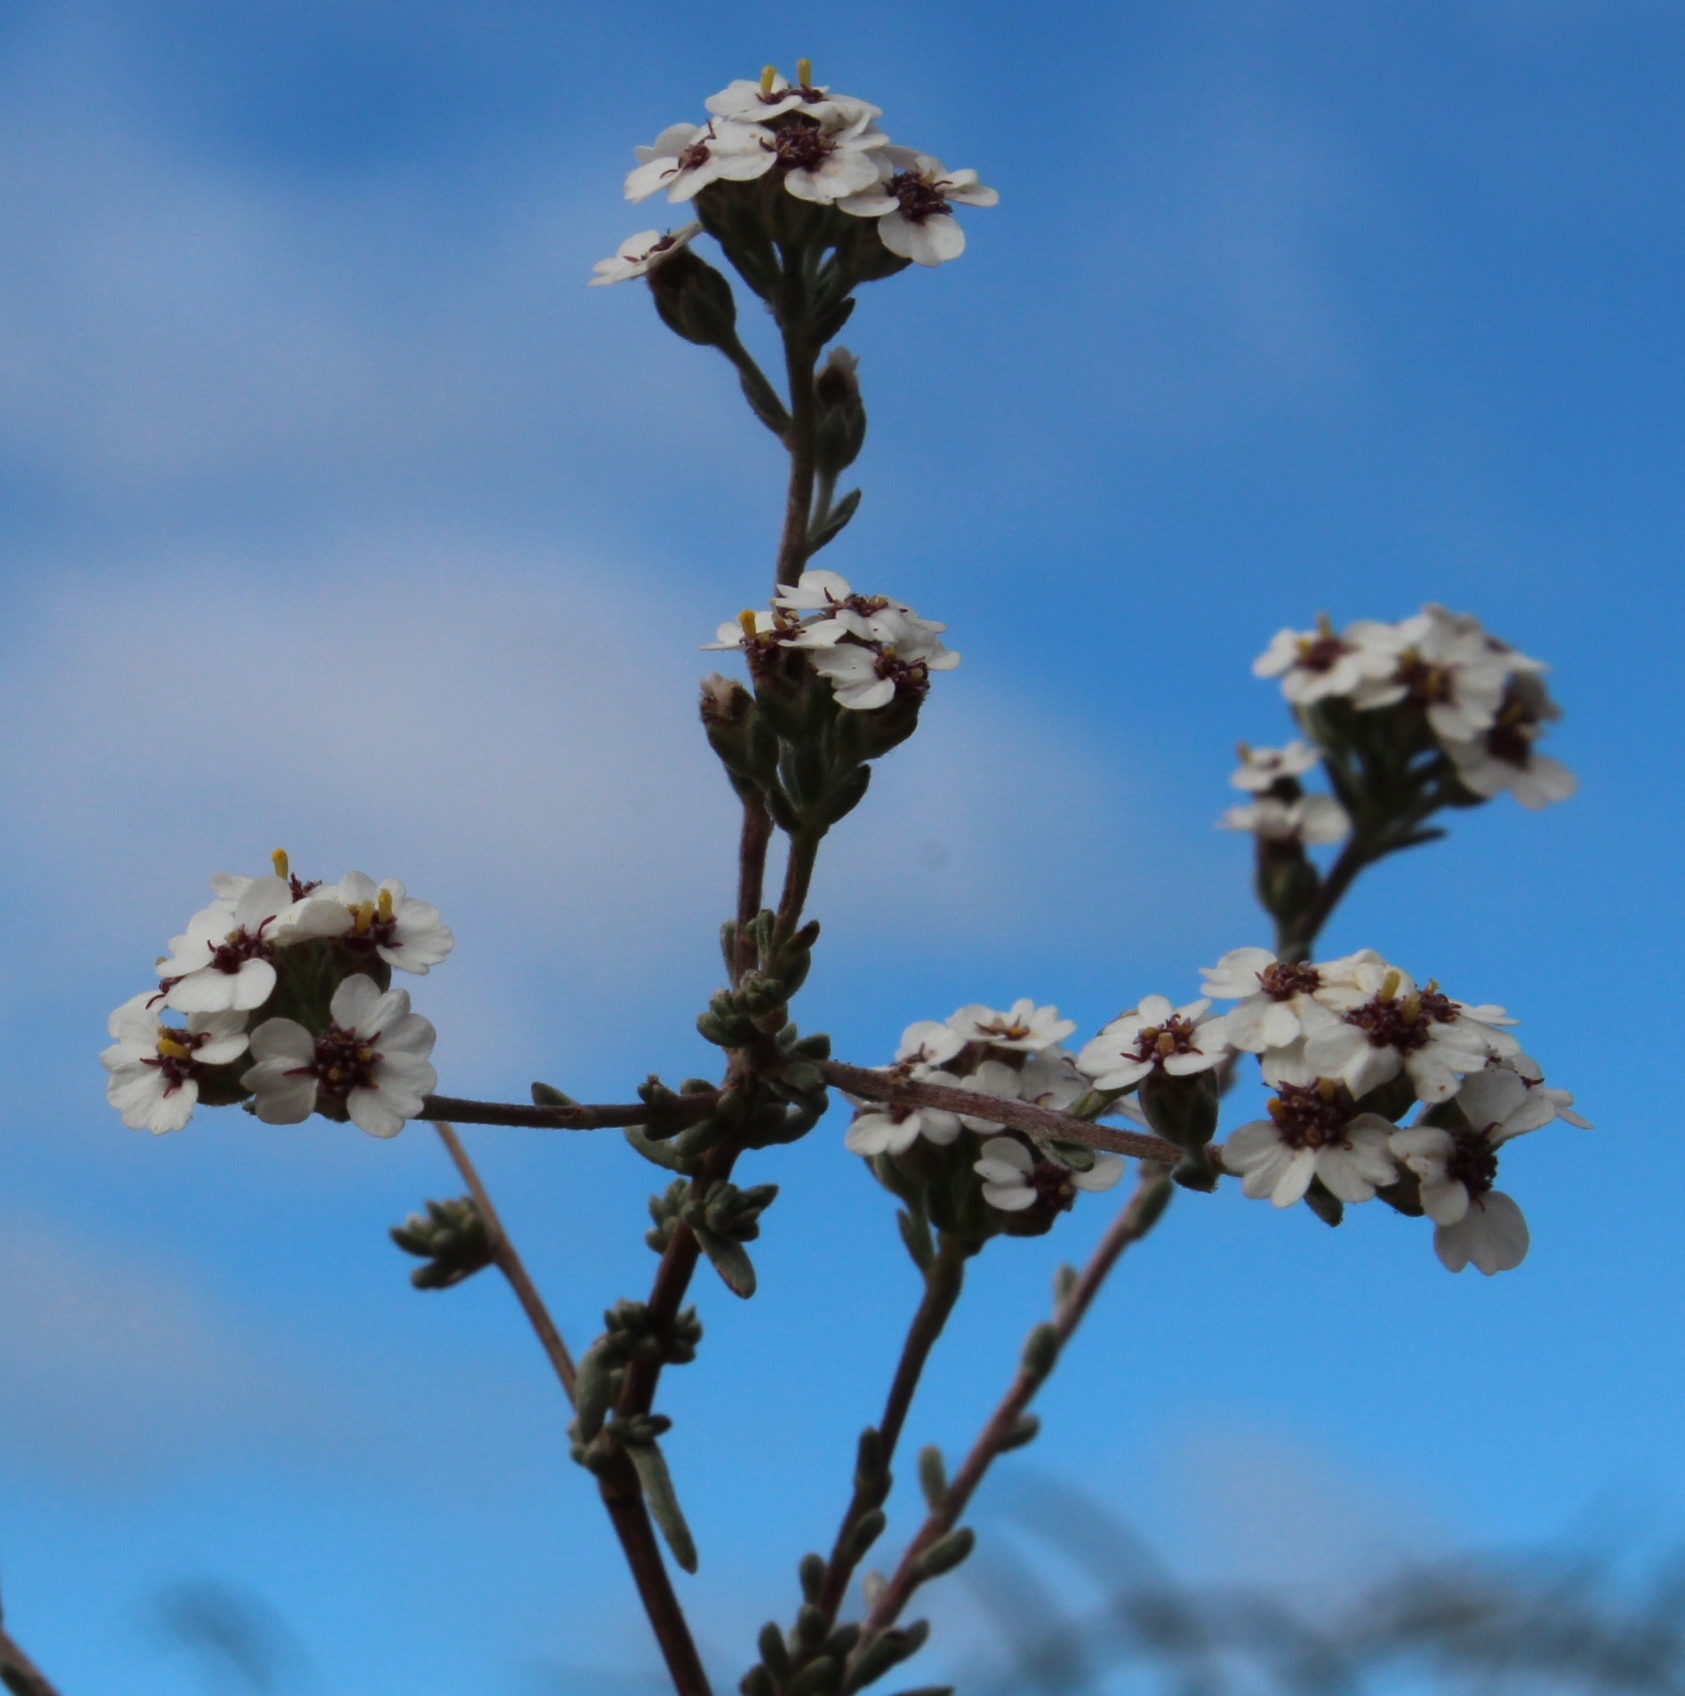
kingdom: Plantae
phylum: Tracheophyta
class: Magnoliopsida
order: Asterales
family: Asteraceae
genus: Eriocephalus
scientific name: Eriocephalus africanus
